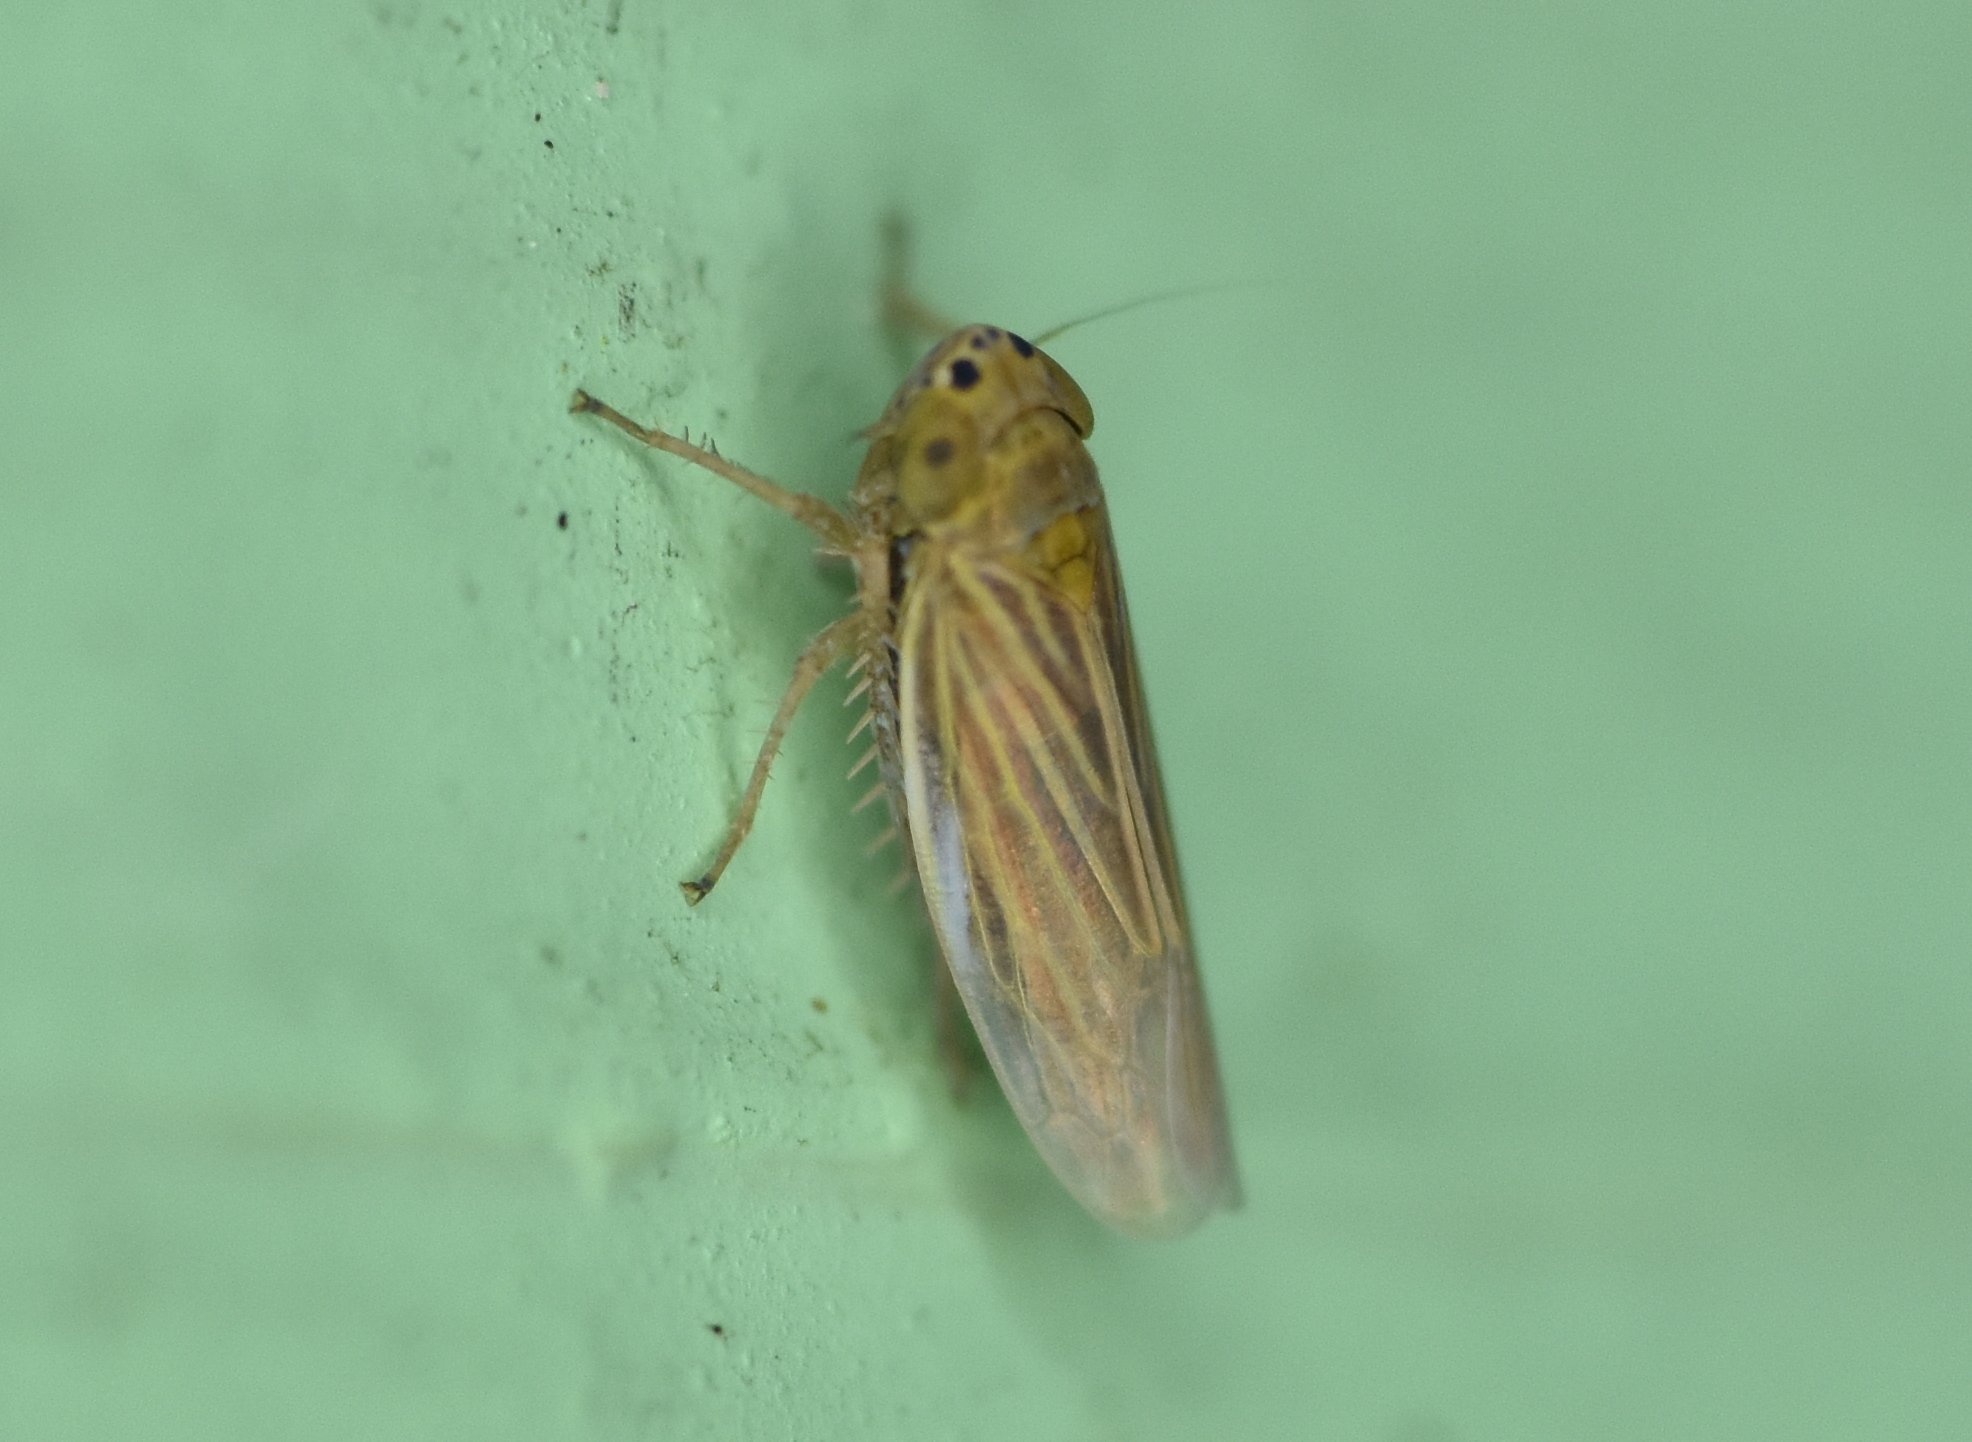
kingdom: Animalia
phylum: Arthropoda
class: Insecta
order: Hemiptera
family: Cicadellidae
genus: Graminella
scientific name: Graminella cognita
